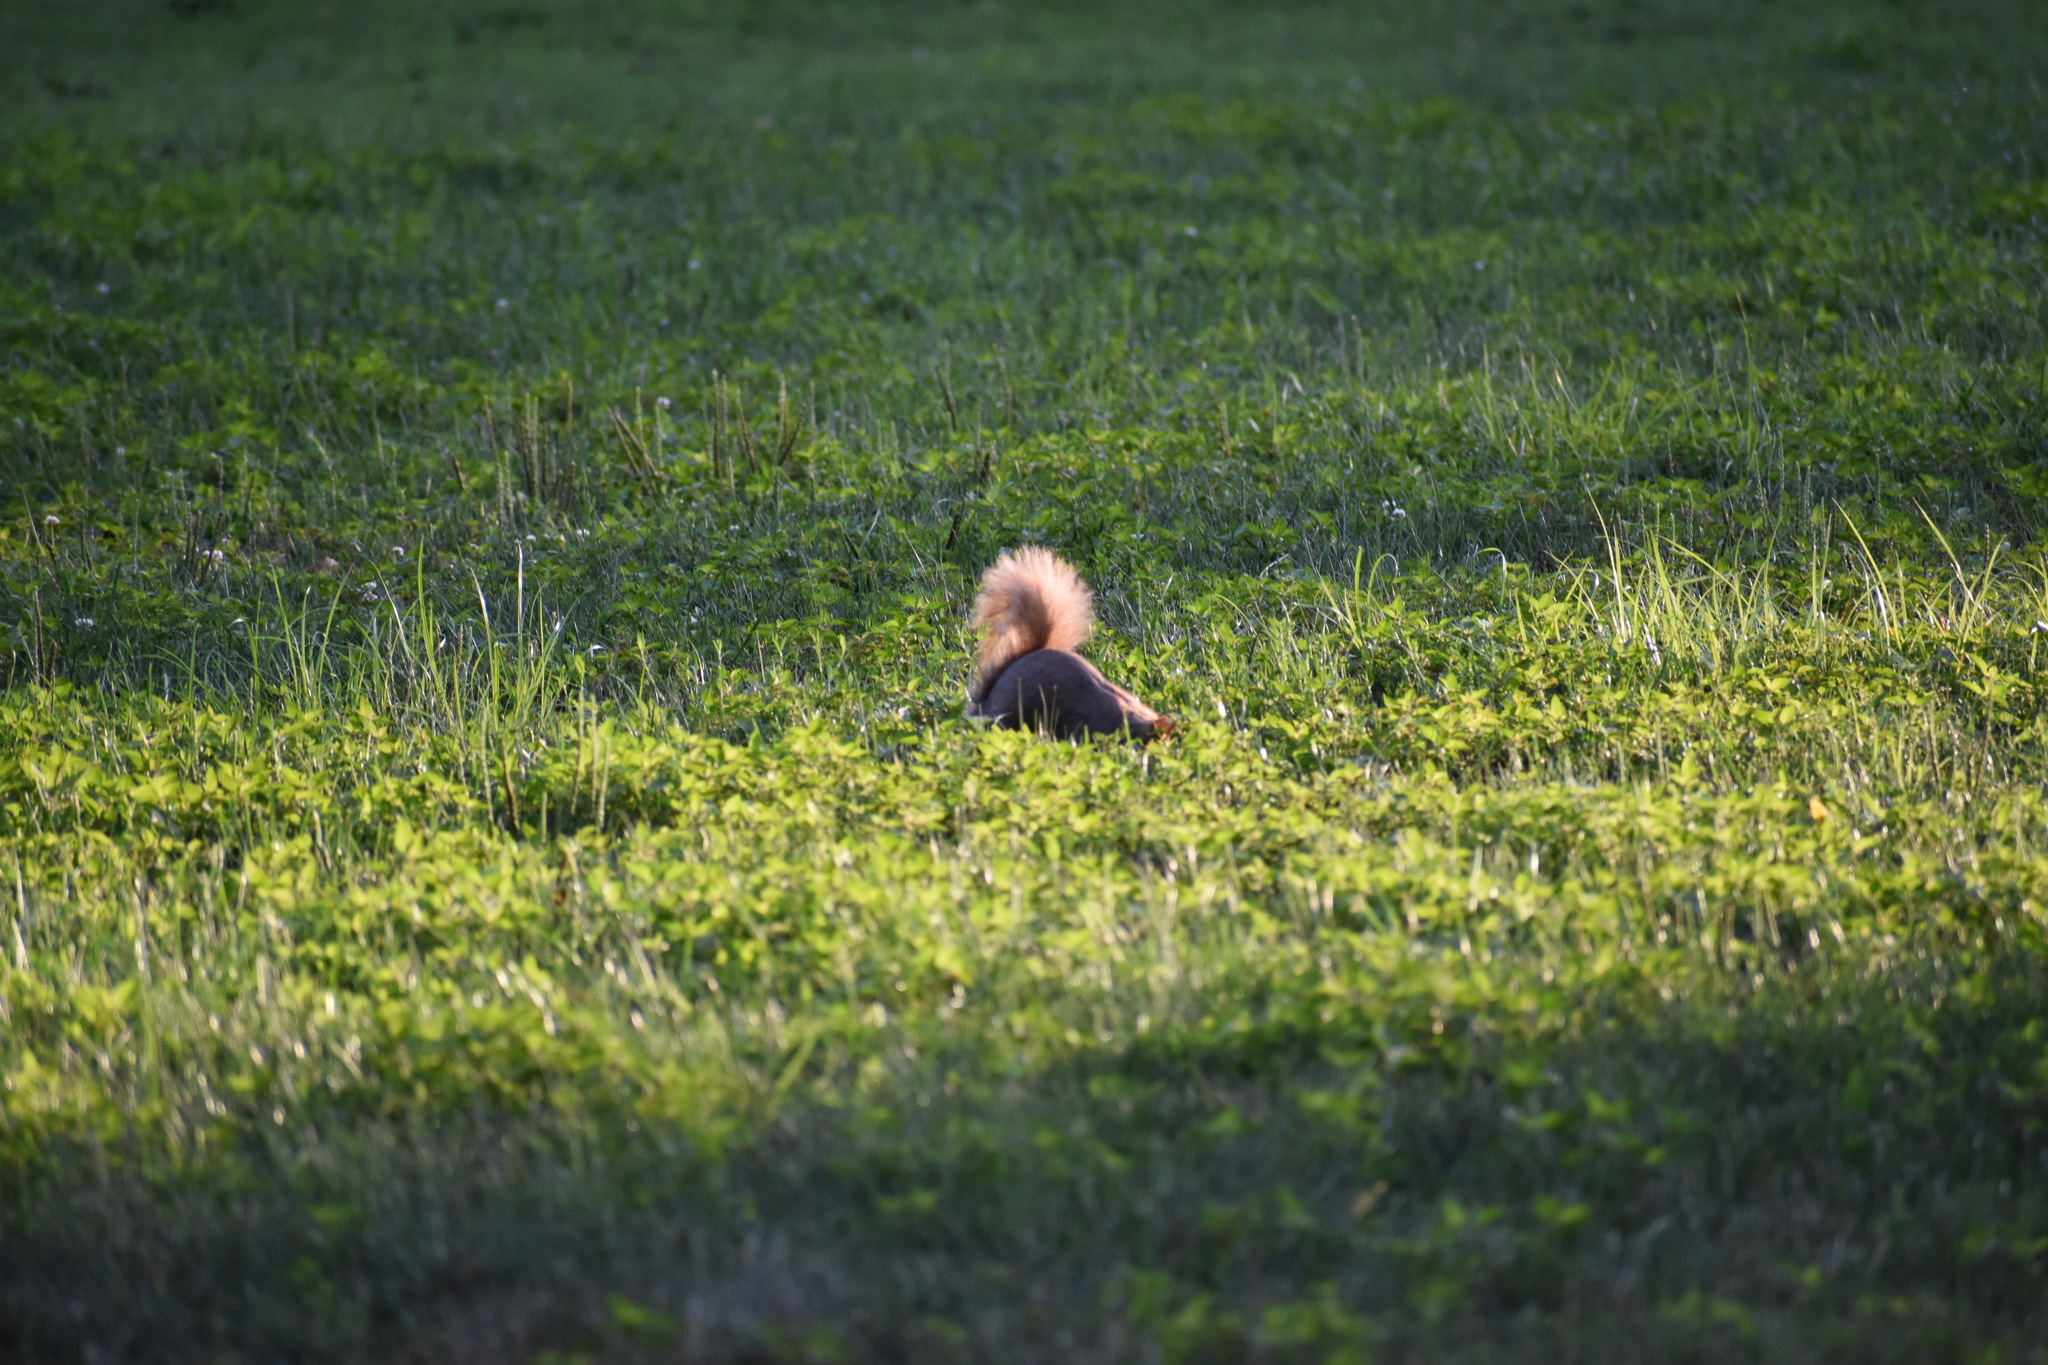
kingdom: Animalia
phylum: Chordata
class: Mammalia
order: Rodentia
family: Sciuridae
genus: Sciurus
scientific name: Sciurus carolinensis
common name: Eastern gray squirrel
